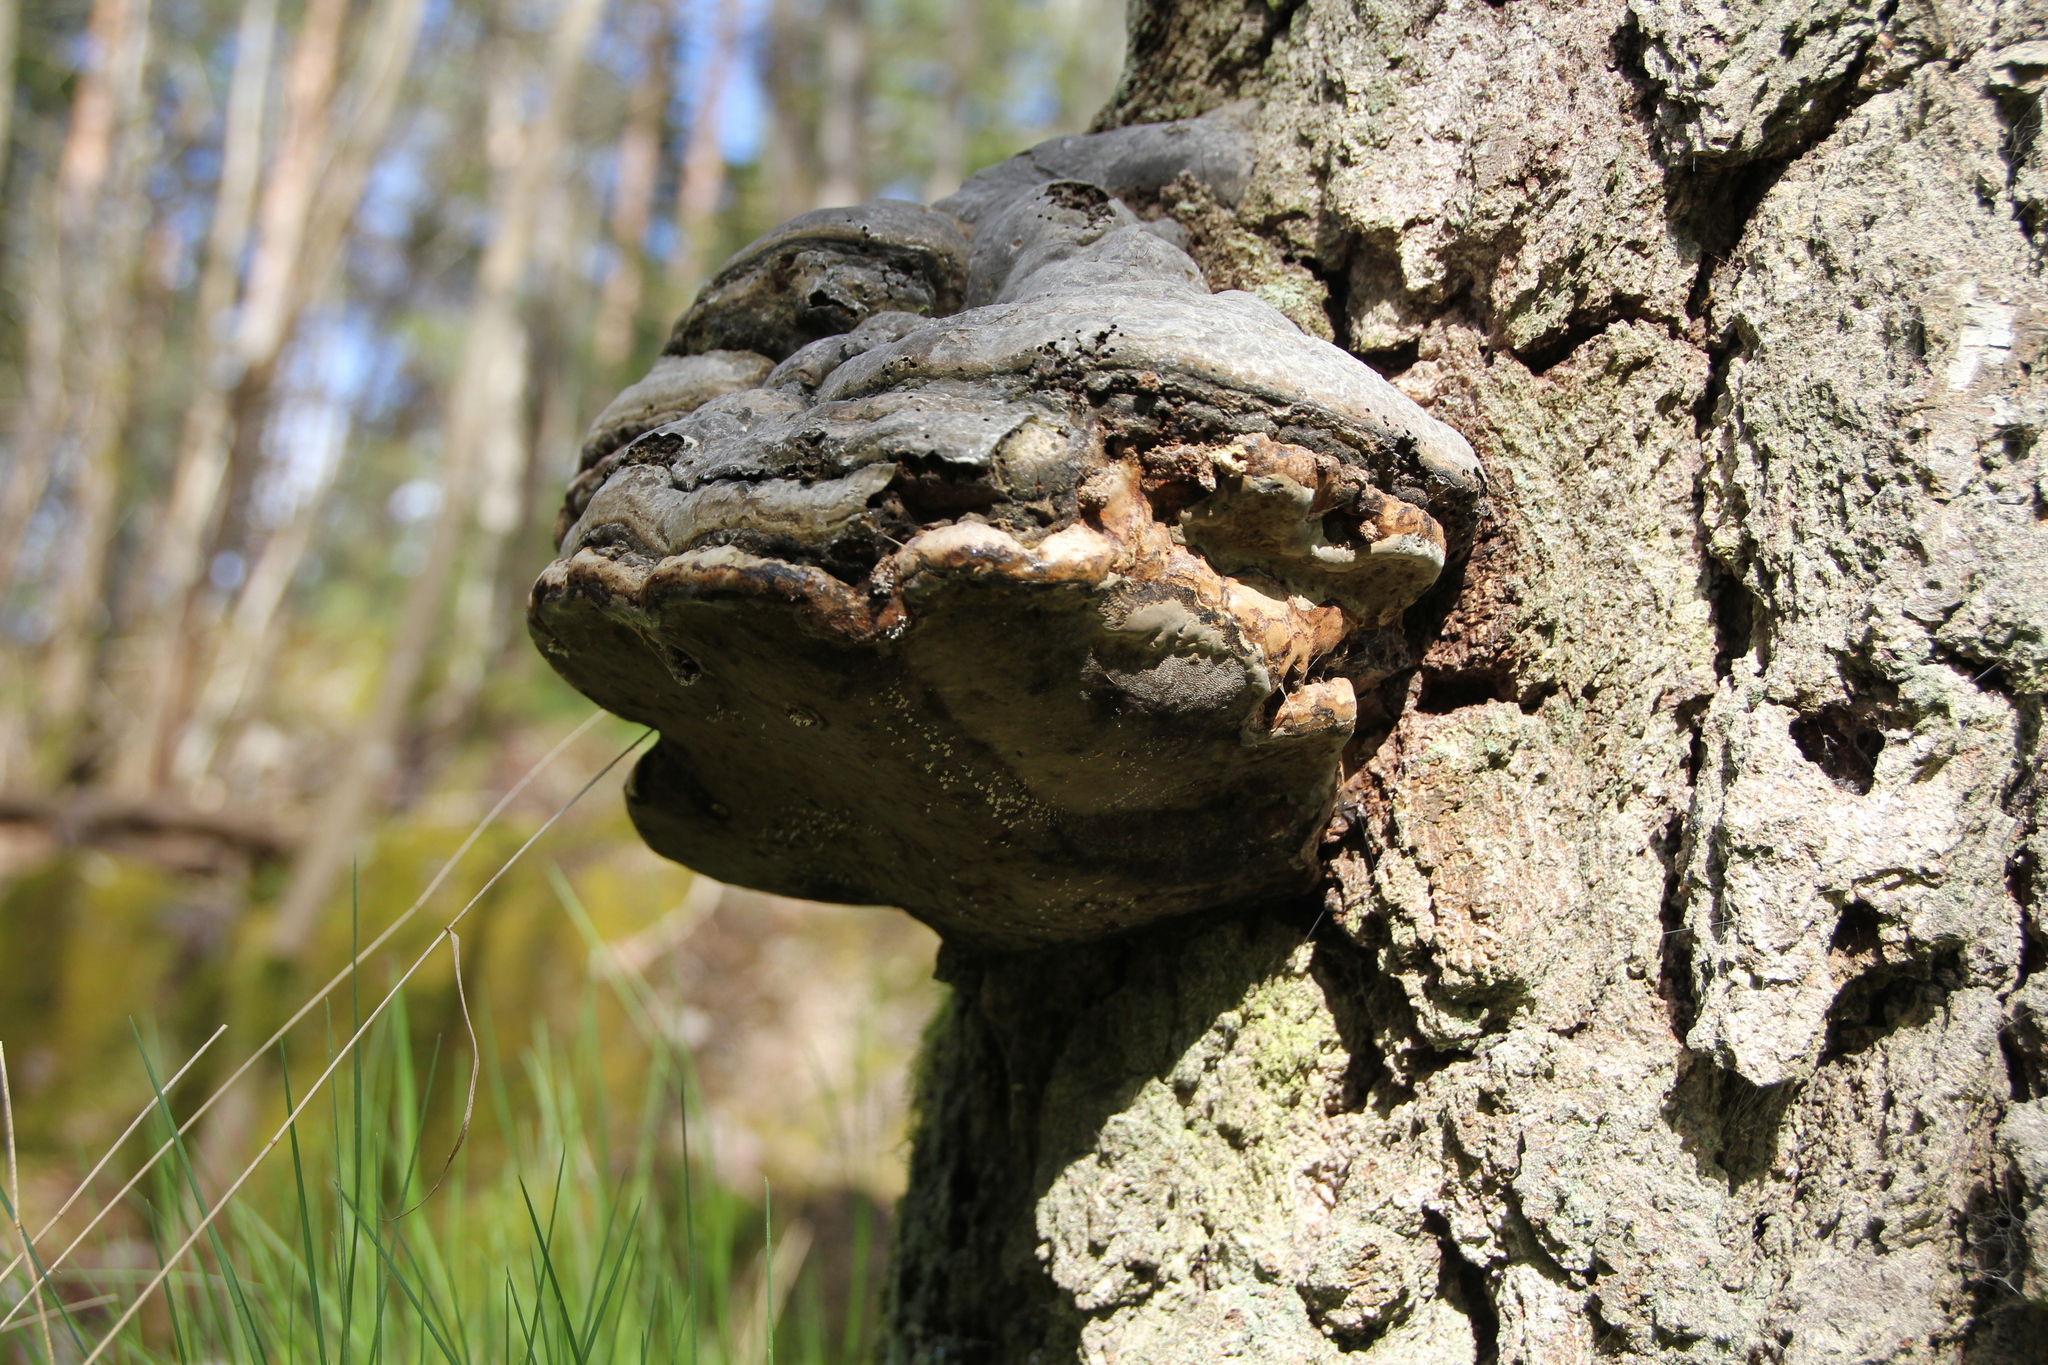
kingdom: Fungi
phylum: Basidiomycota
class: Agaricomycetes
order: Polyporales
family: Polyporaceae
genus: Fomes
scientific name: Fomes fomentarius
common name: Hoof fungus
